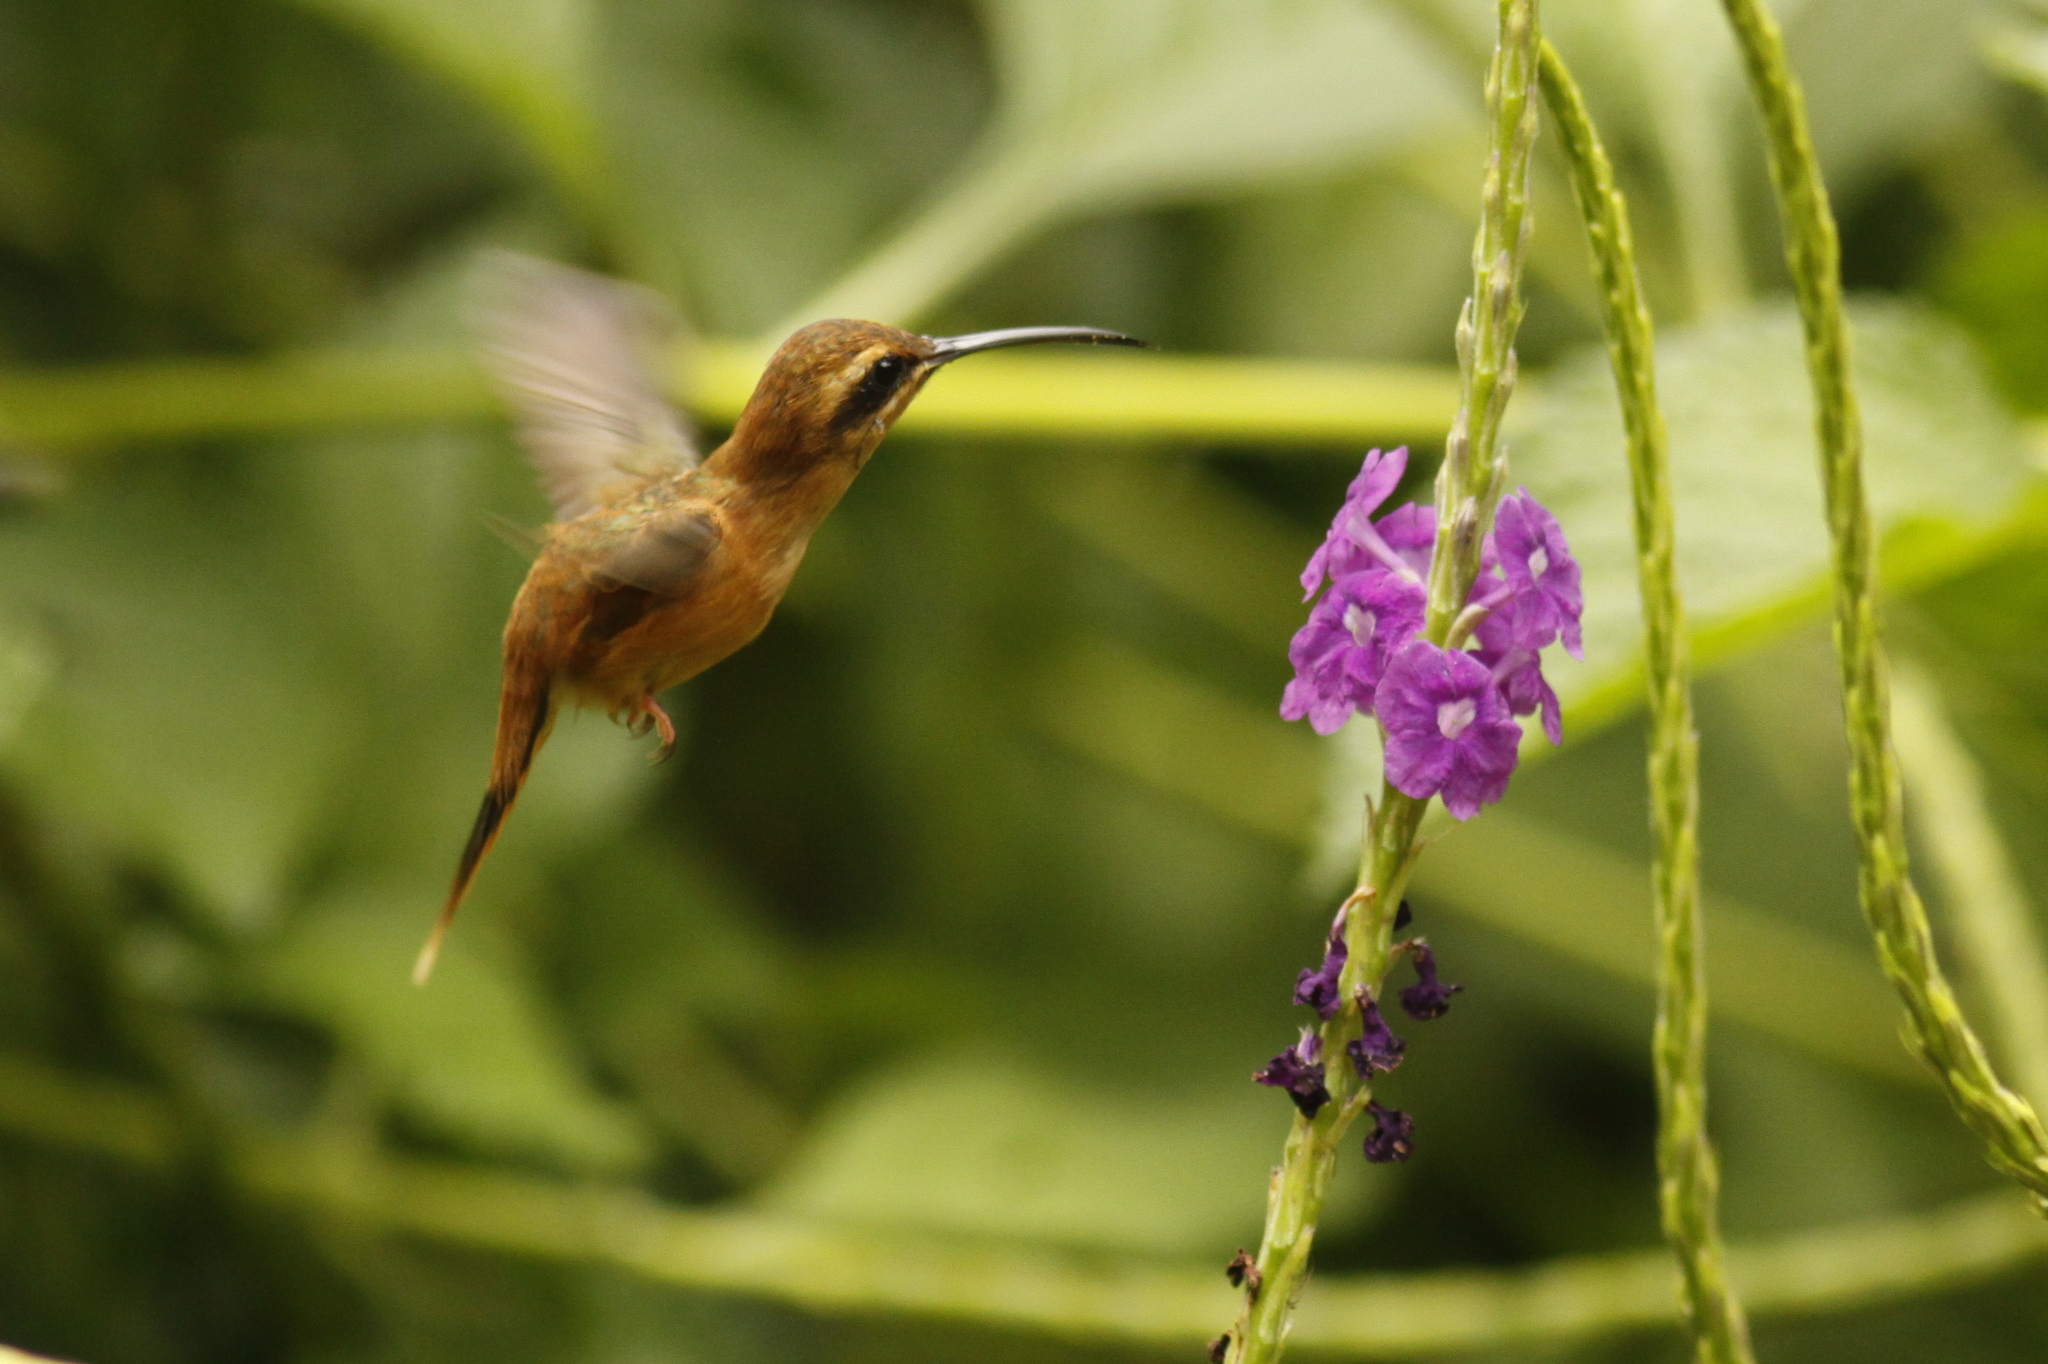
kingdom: Animalia
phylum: Chordata
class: Aves
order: Apodiformes
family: Trochilidae
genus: Phaethornis
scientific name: Phaethornis striigularis
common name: Stripe-throated hermit
